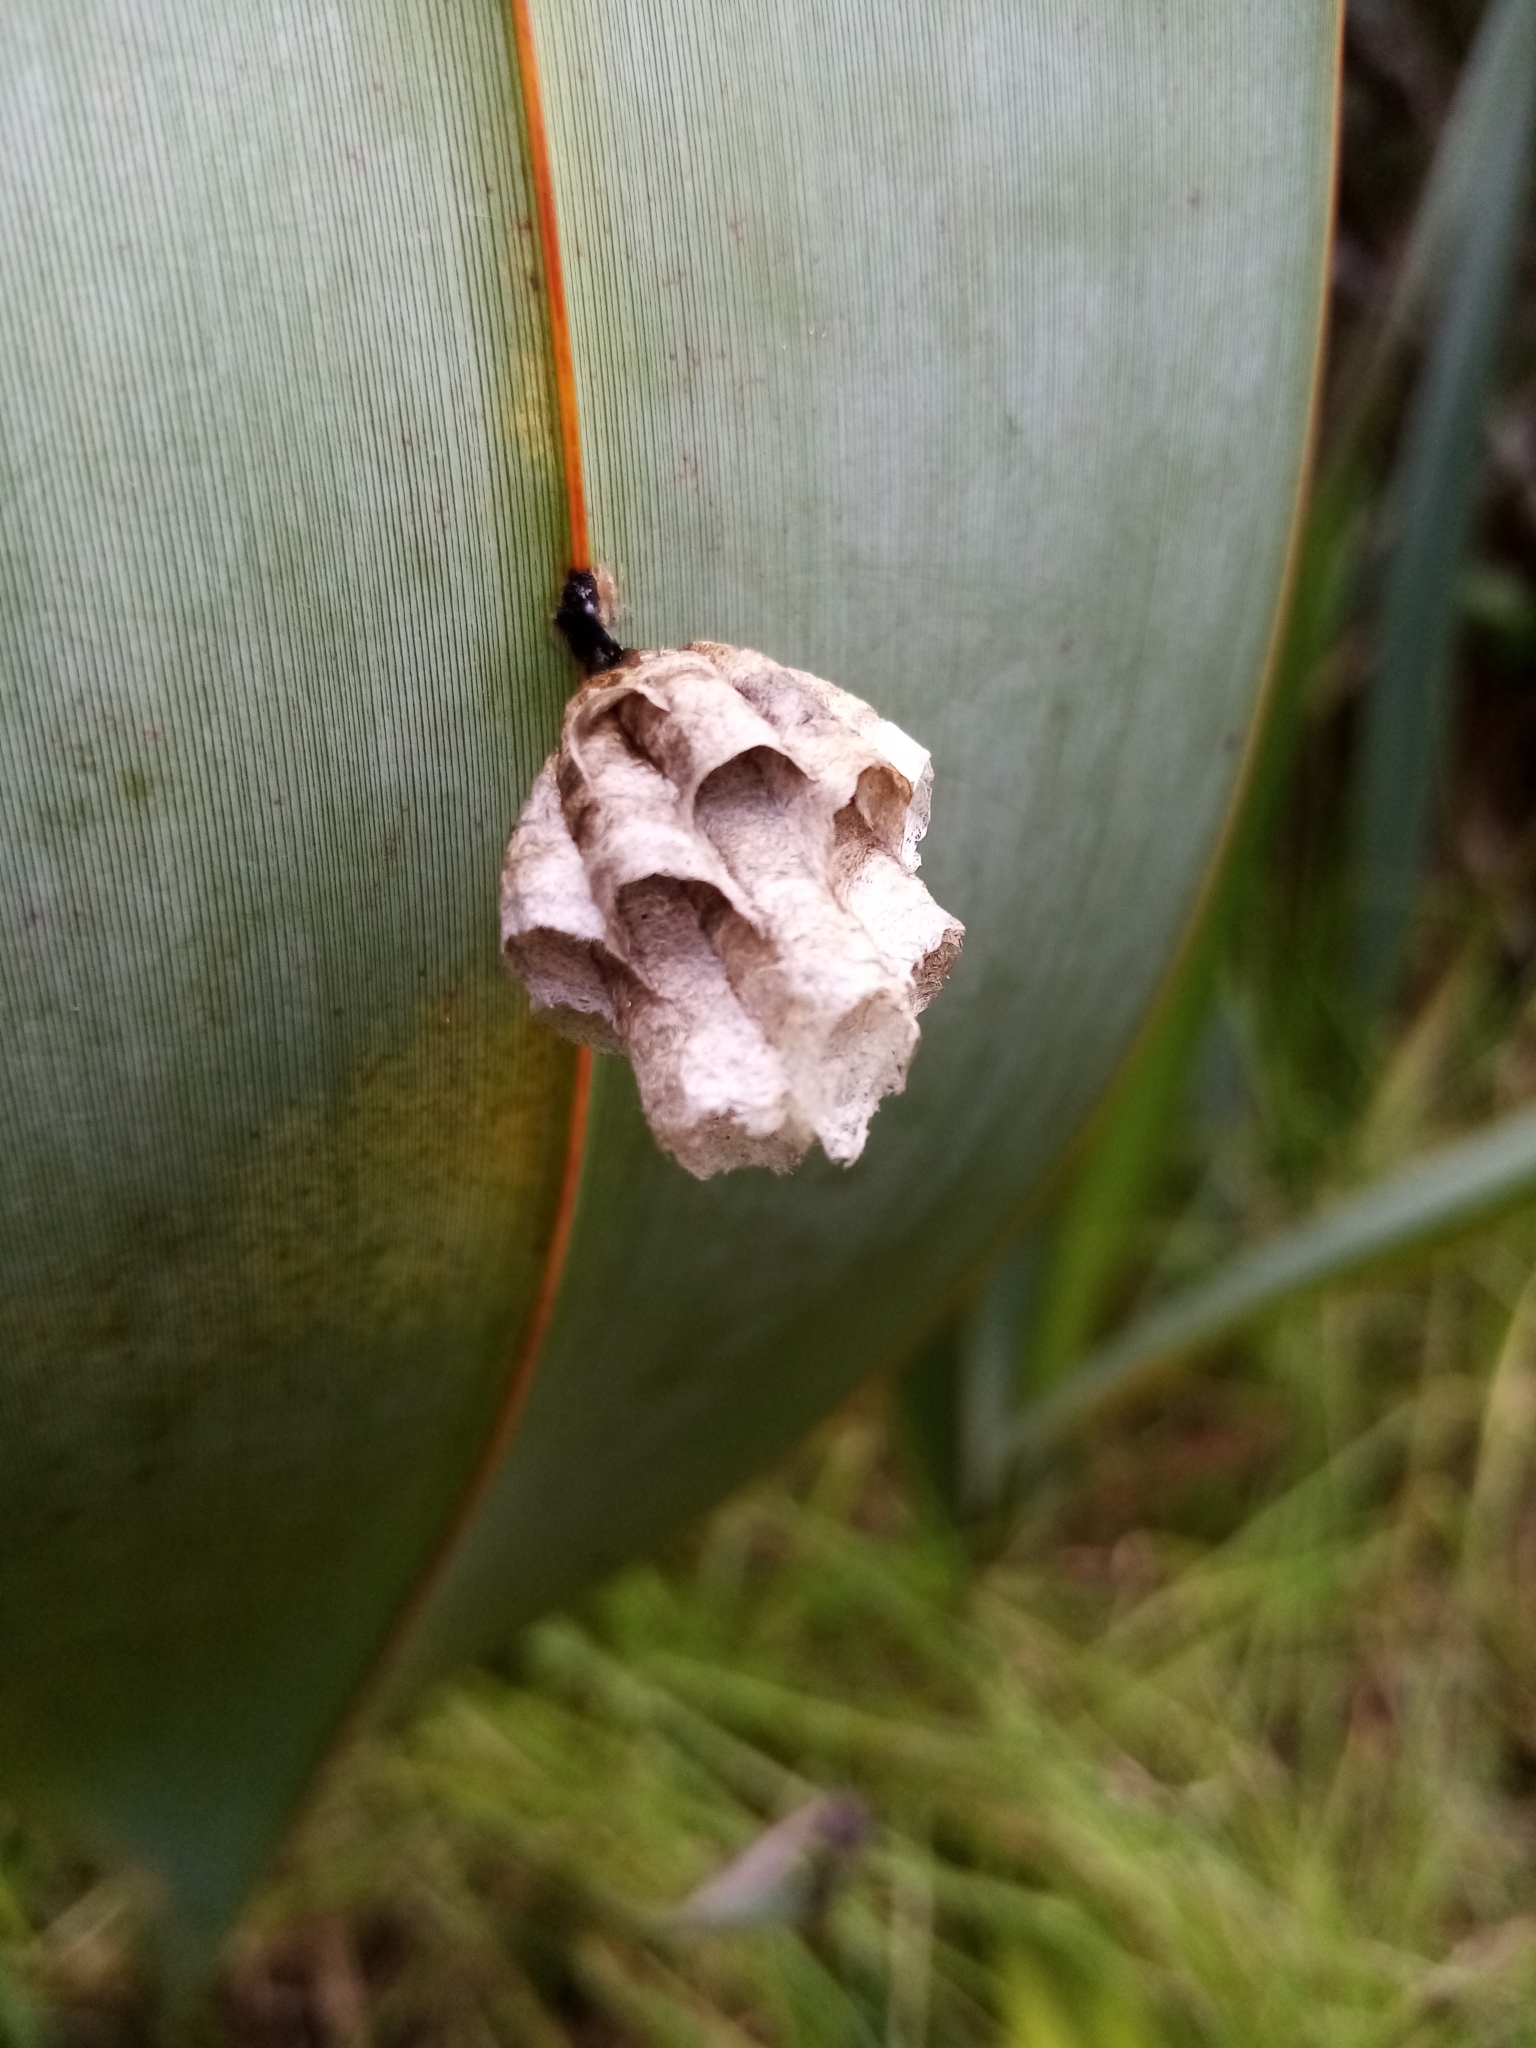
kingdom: Animalia
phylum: Arthropoda
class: Insecta
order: Hymenoptera
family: Eumenidae
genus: Polistes
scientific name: Polistes
